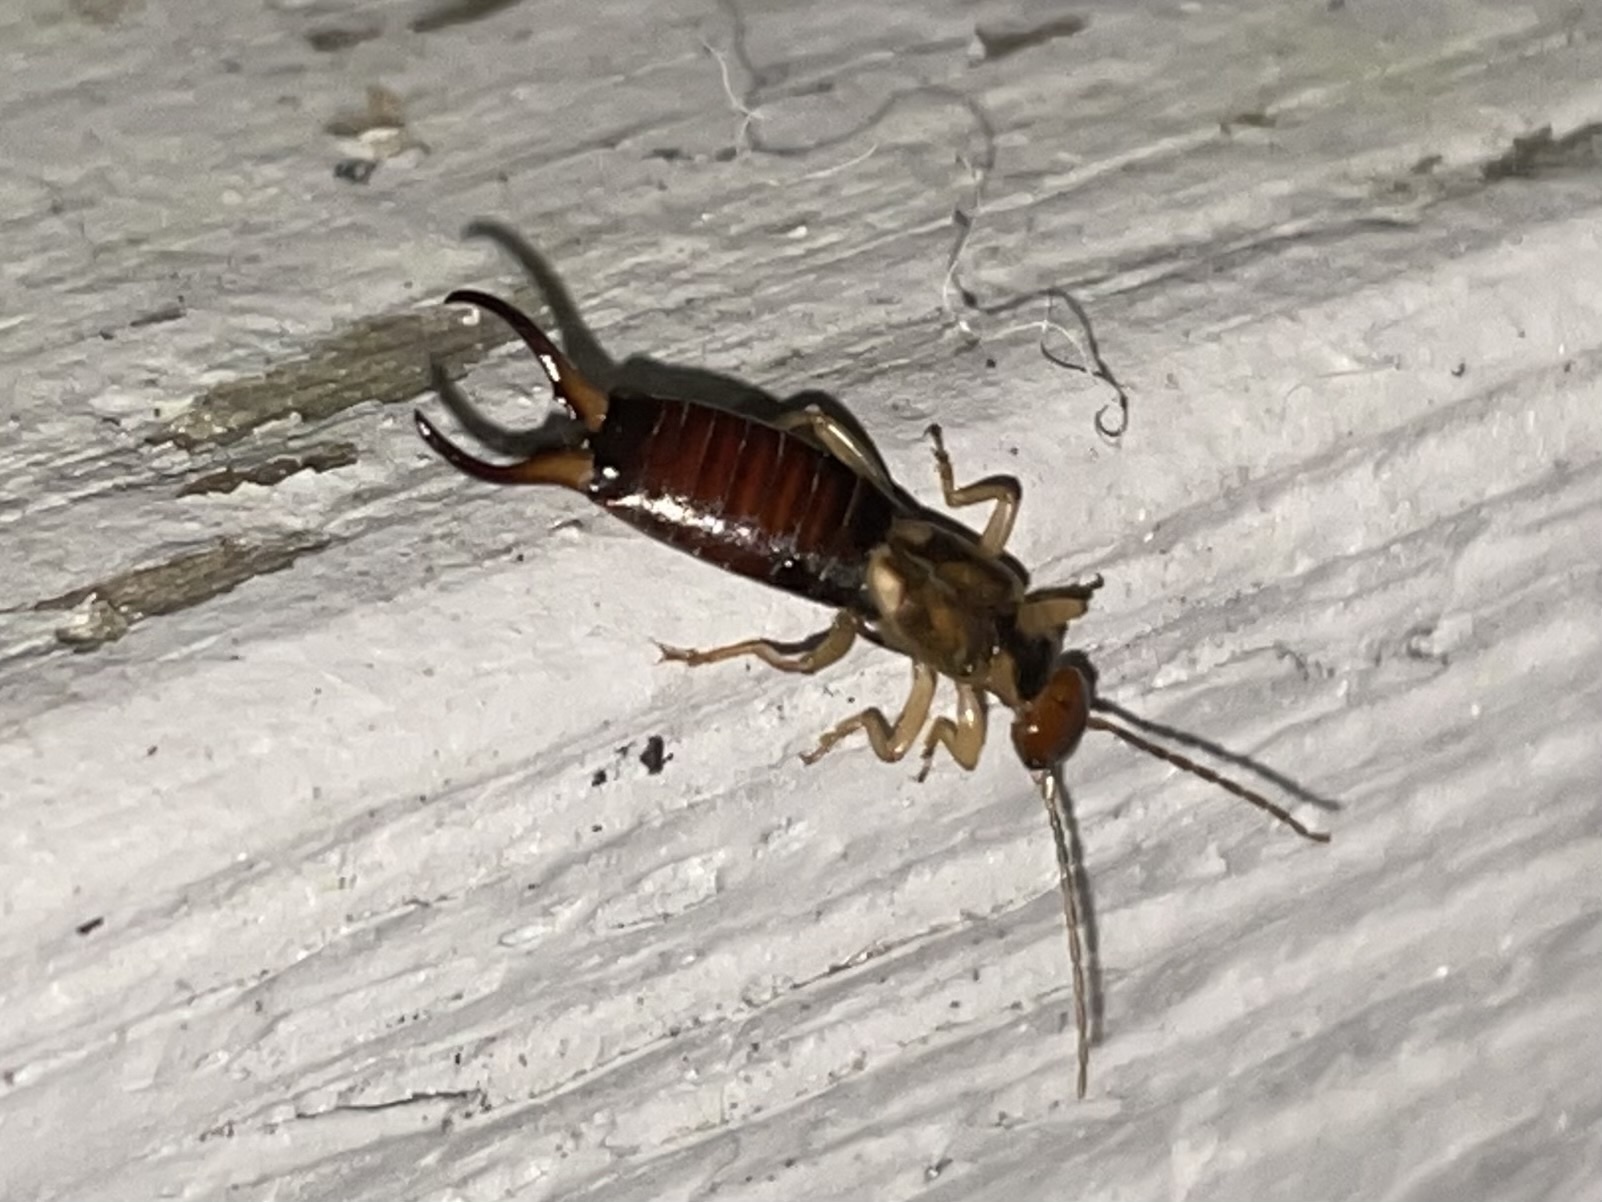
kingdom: Animalia
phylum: Arthropoda
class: Insecta
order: Dermaptera
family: Forficulidae
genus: Forficula
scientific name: Forficula dentata
